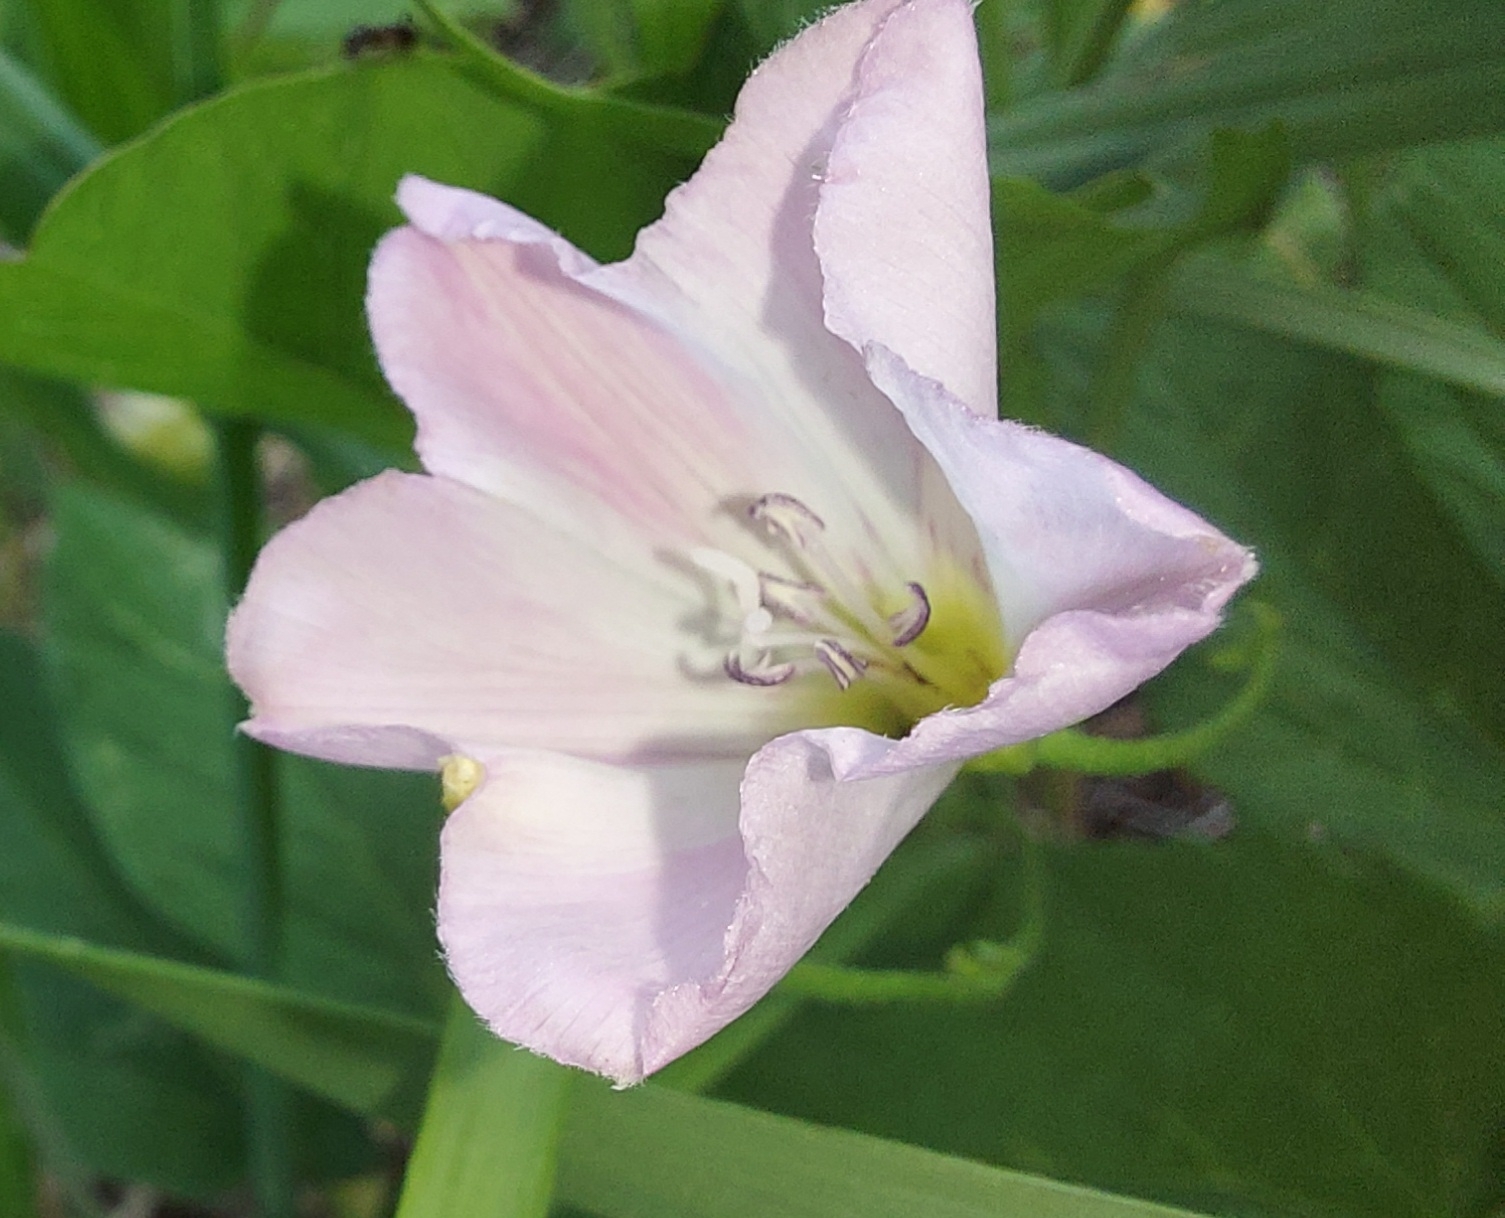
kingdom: Plantae
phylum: Tracheophyta
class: Magnoliopsida
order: Solanales
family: Convolvulaceae
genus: Convolvulus
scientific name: Convolvulus arvensis
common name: Field bindweed
